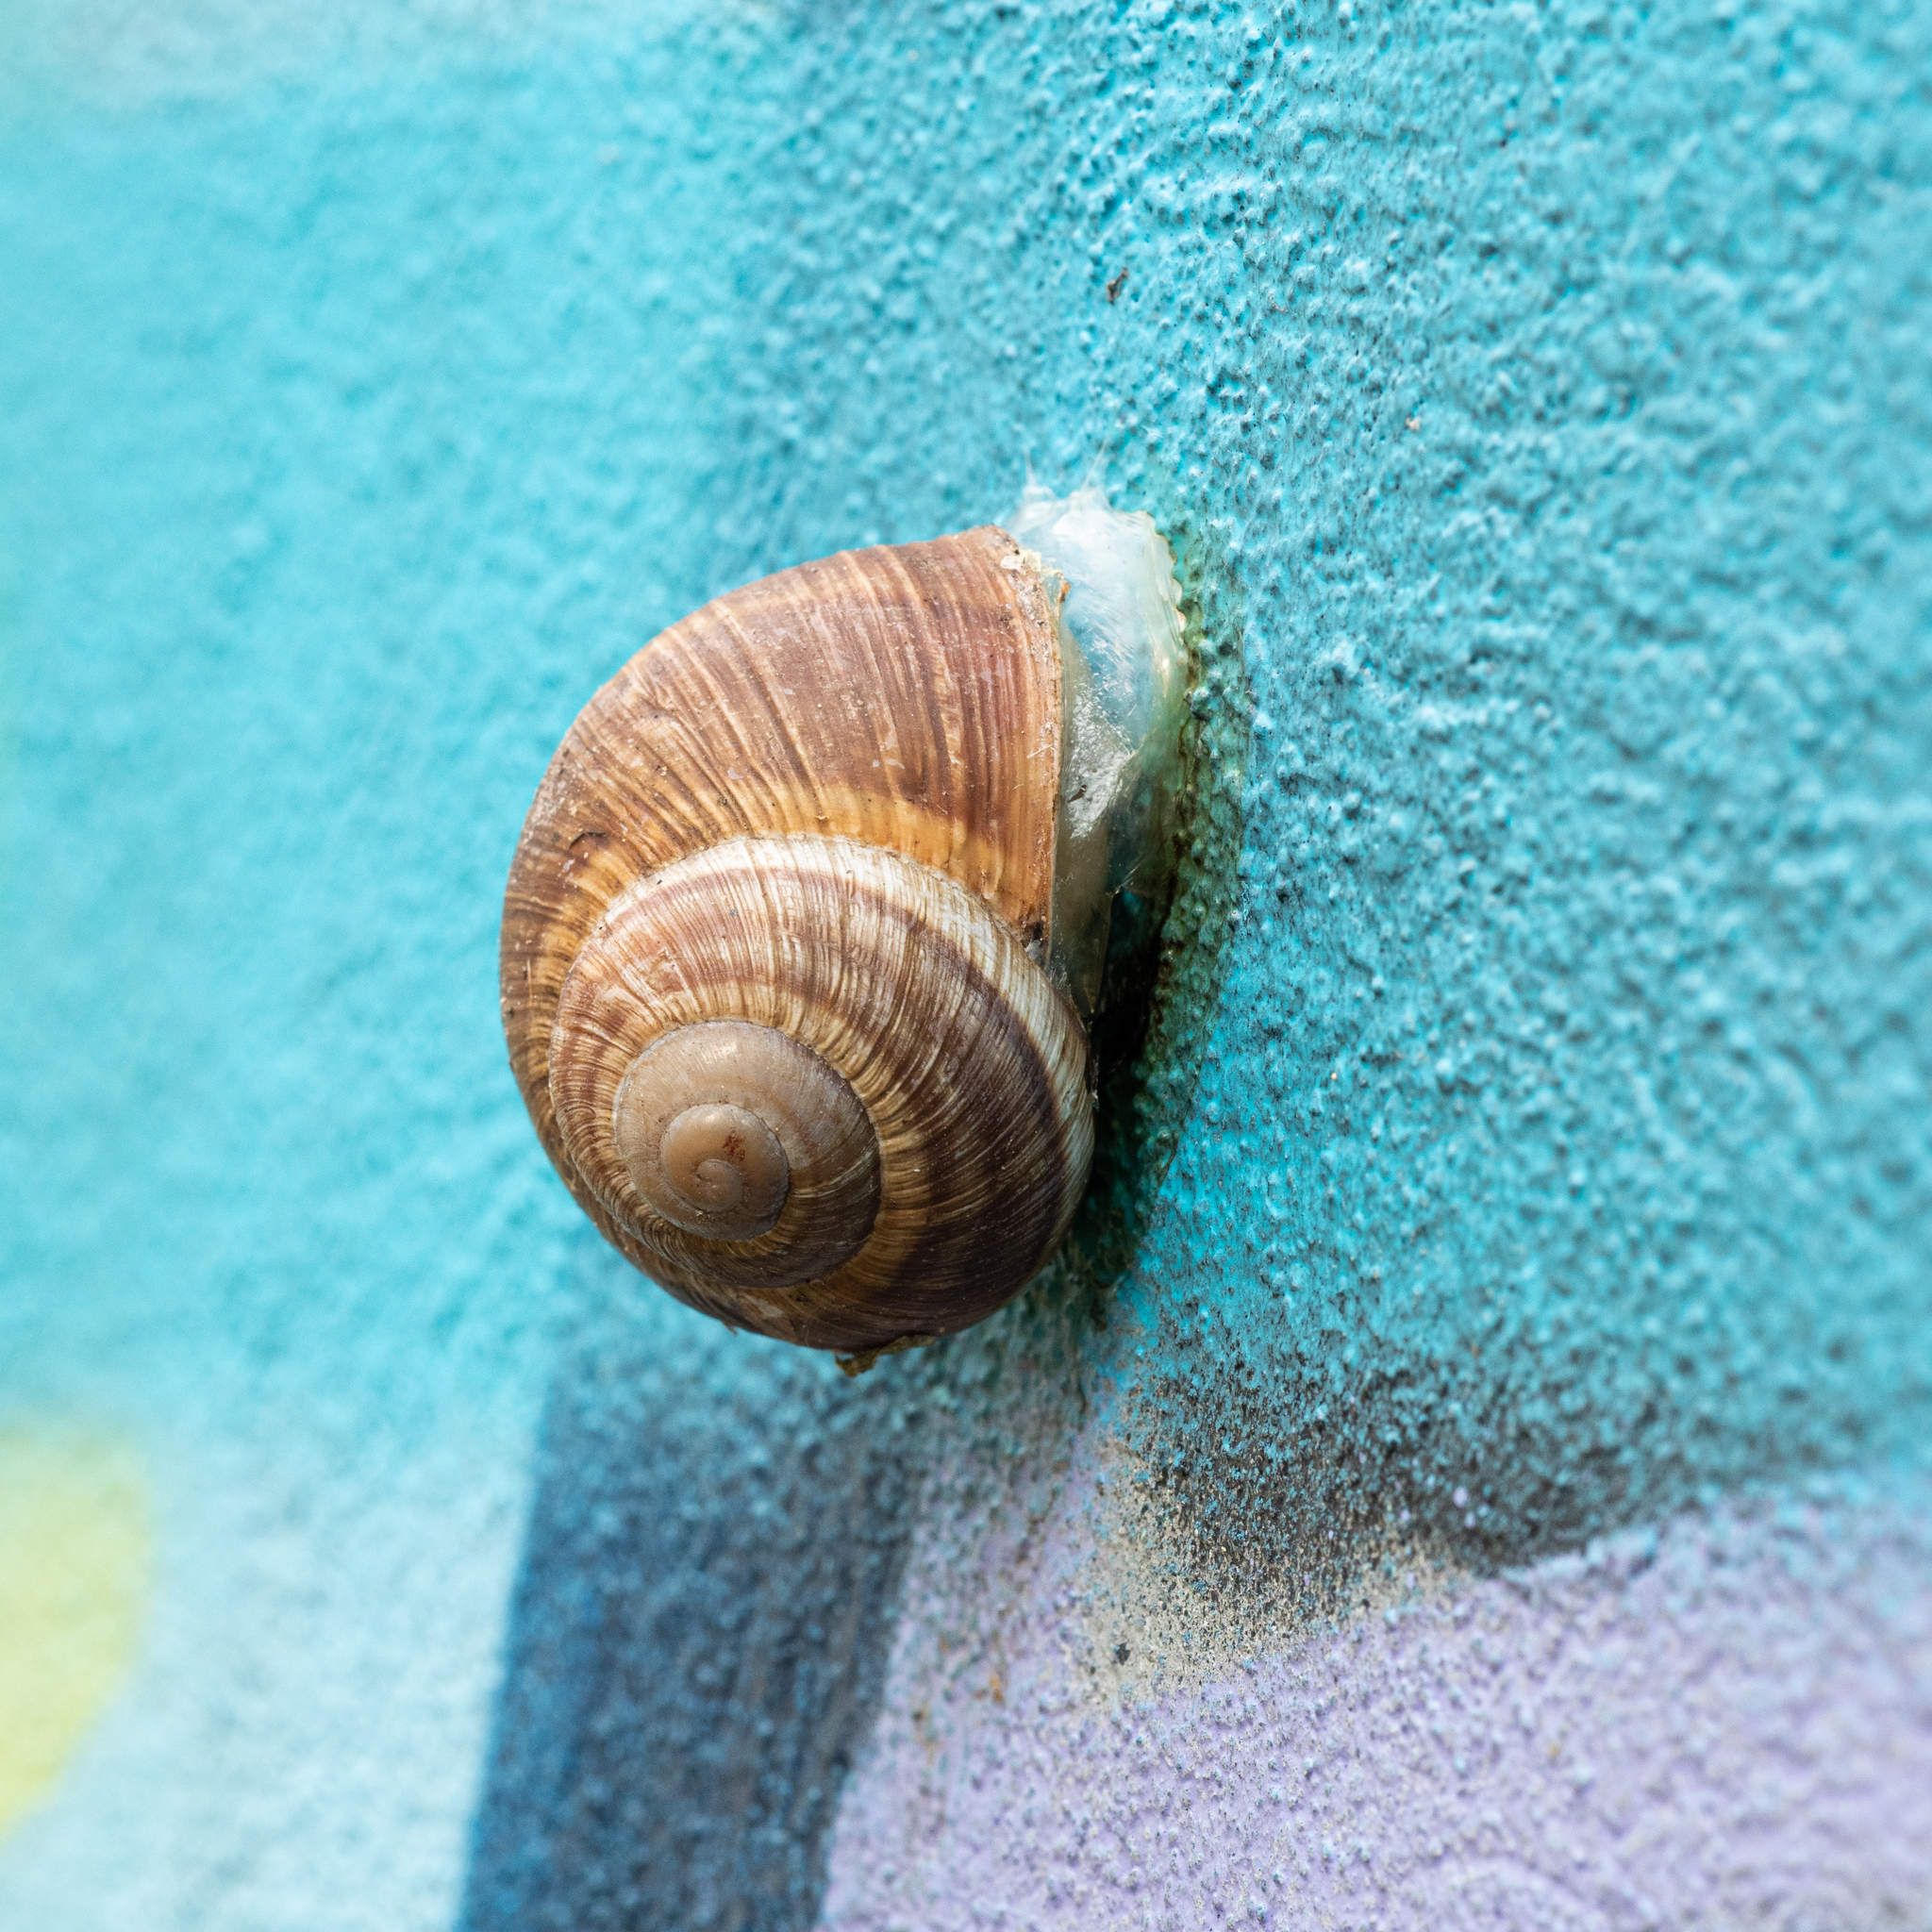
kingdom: Animalia
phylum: Mollusca
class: Gastropoda
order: Stylommatophora
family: Helicidae
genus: Helix
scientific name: Helix pomatia
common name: Roman snail
